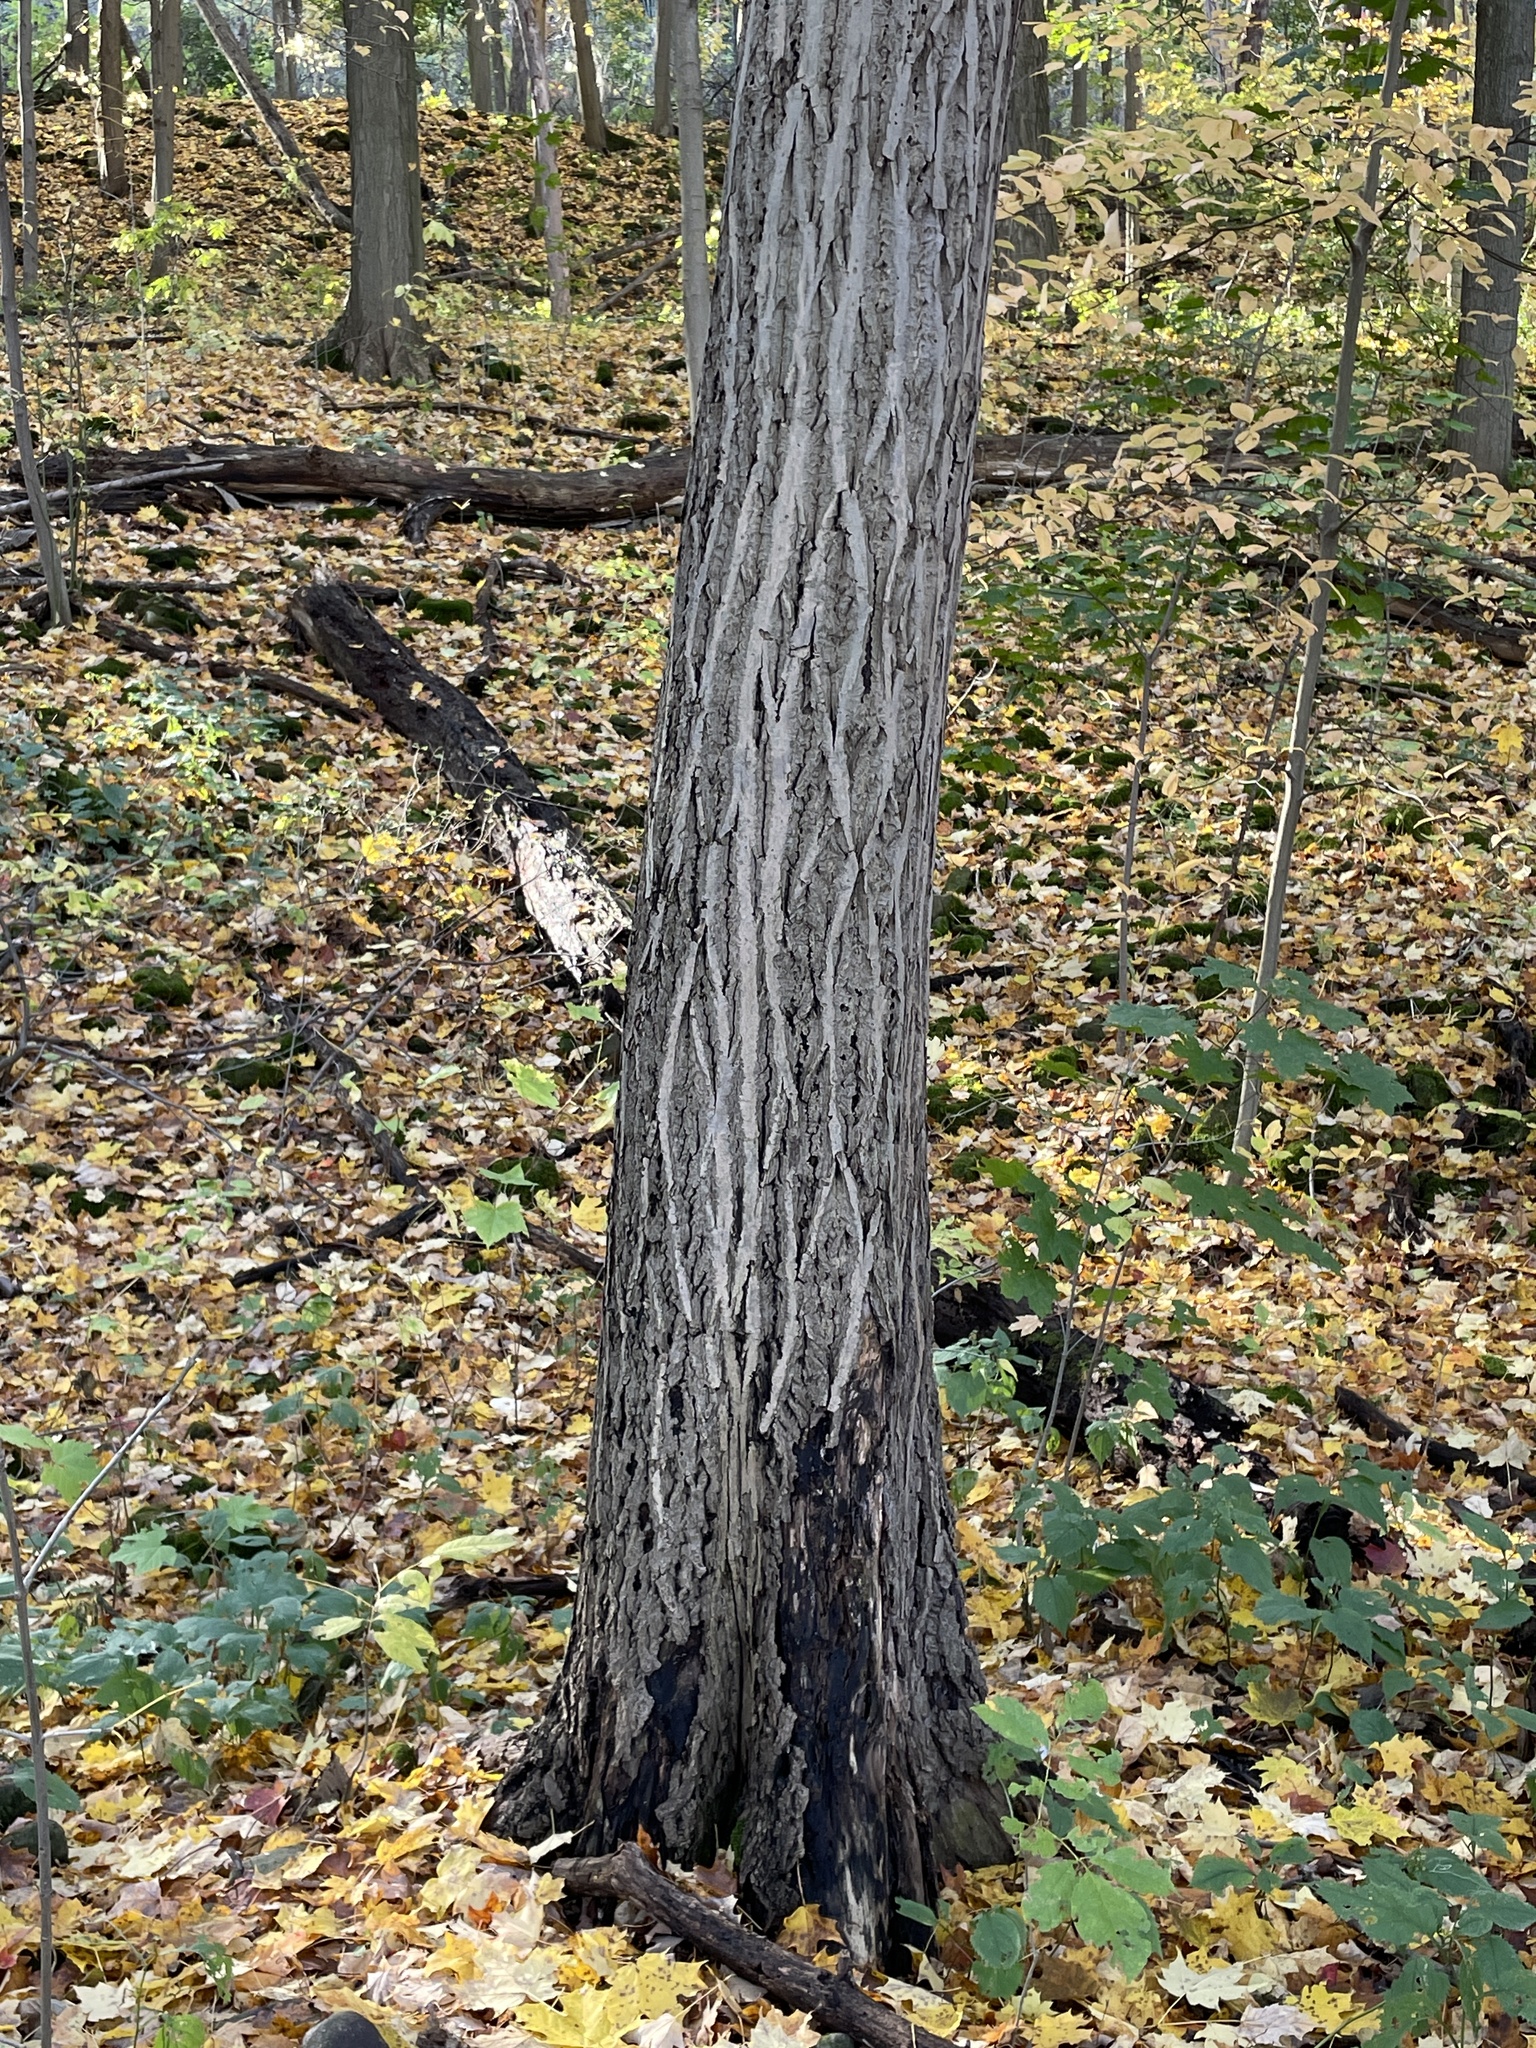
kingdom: Plantae
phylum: Tracheophyta
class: Magnoliopsida
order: Fagales
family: Juglandaceae
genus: Juglans
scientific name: Juglans cinerea
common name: Butternut
